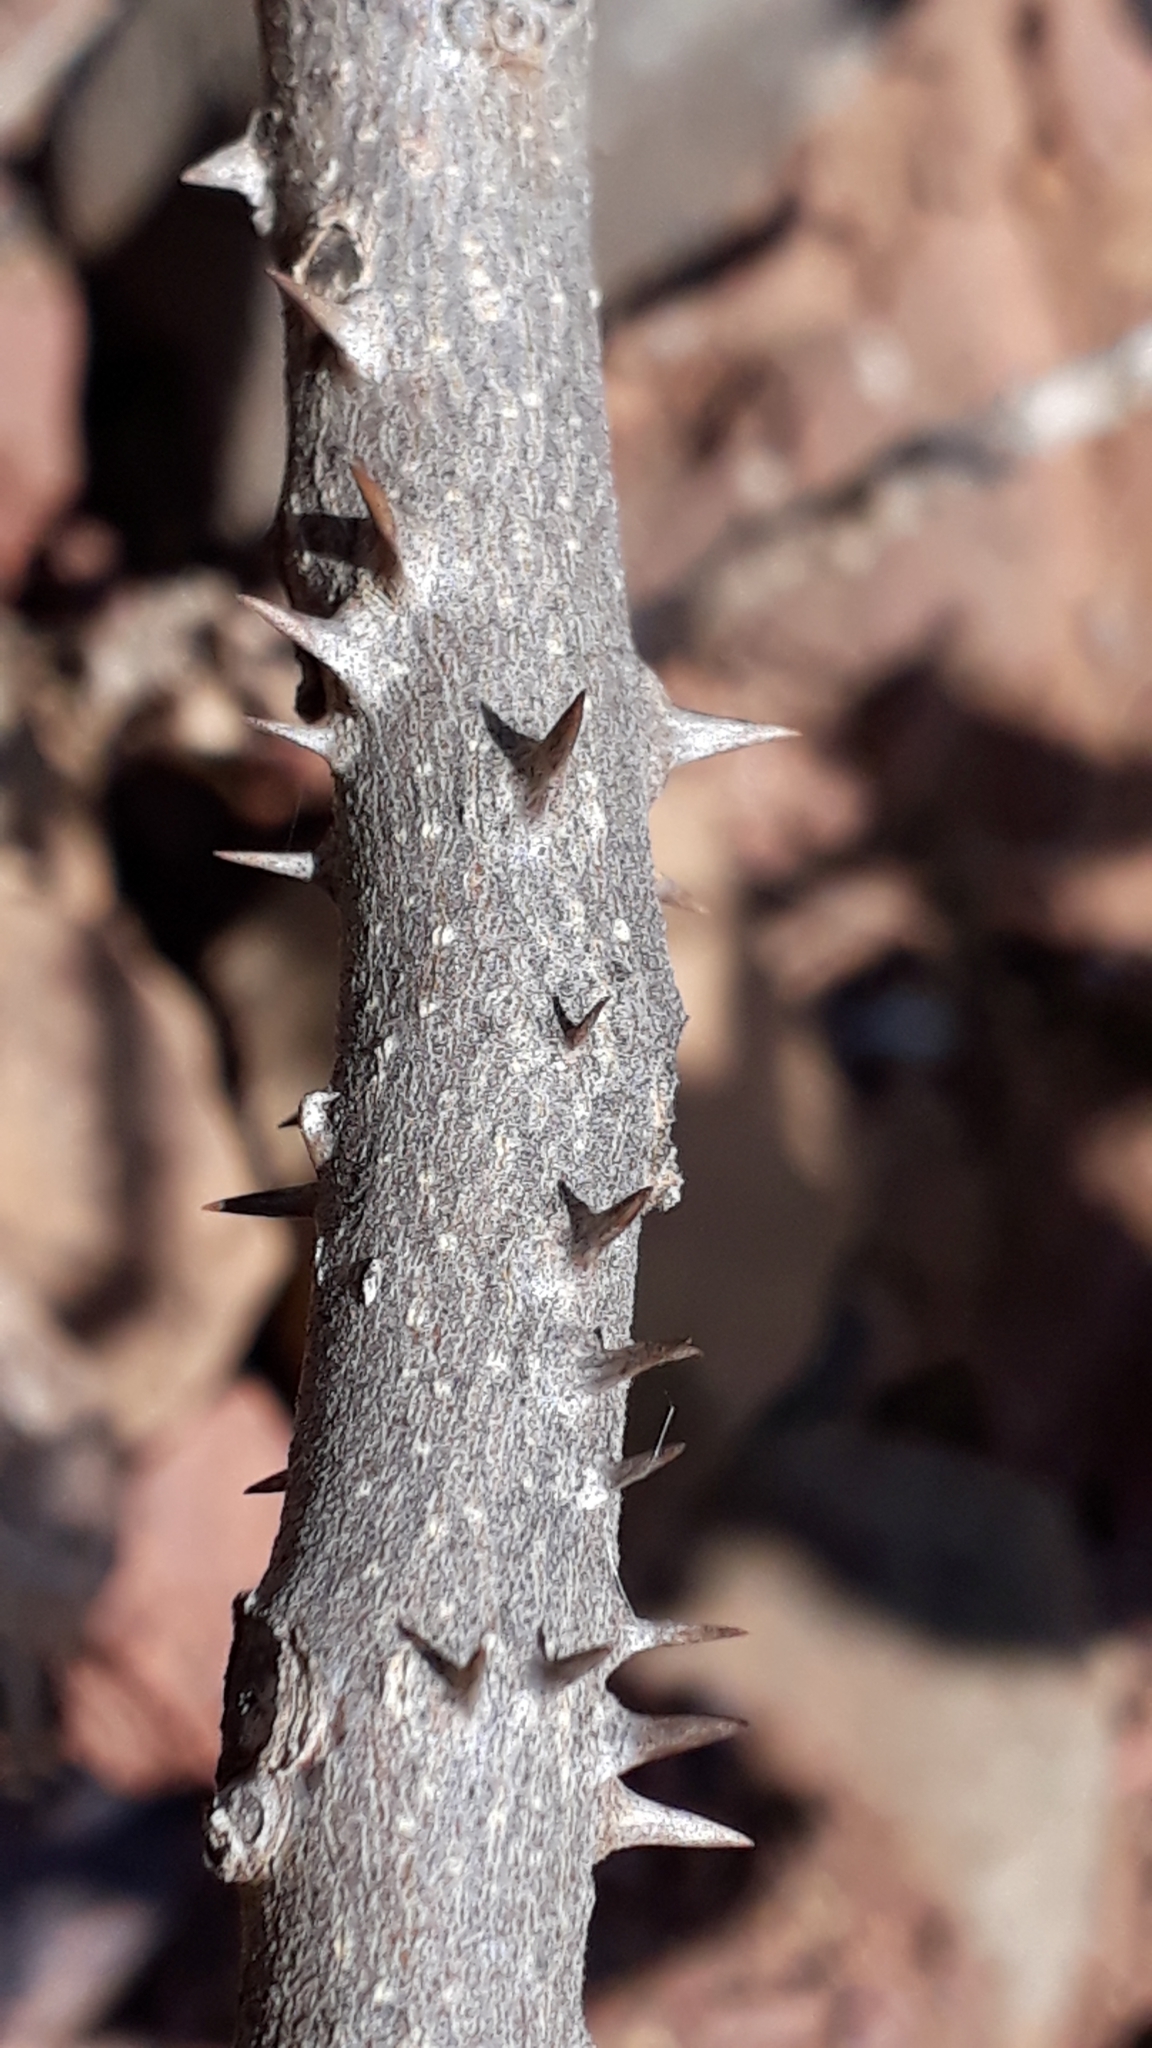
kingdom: Plantae
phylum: Tracheophyta
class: Magnoliopsida
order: Solanales
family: Solanaceae
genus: Solanum
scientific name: Solanum vespertilio
